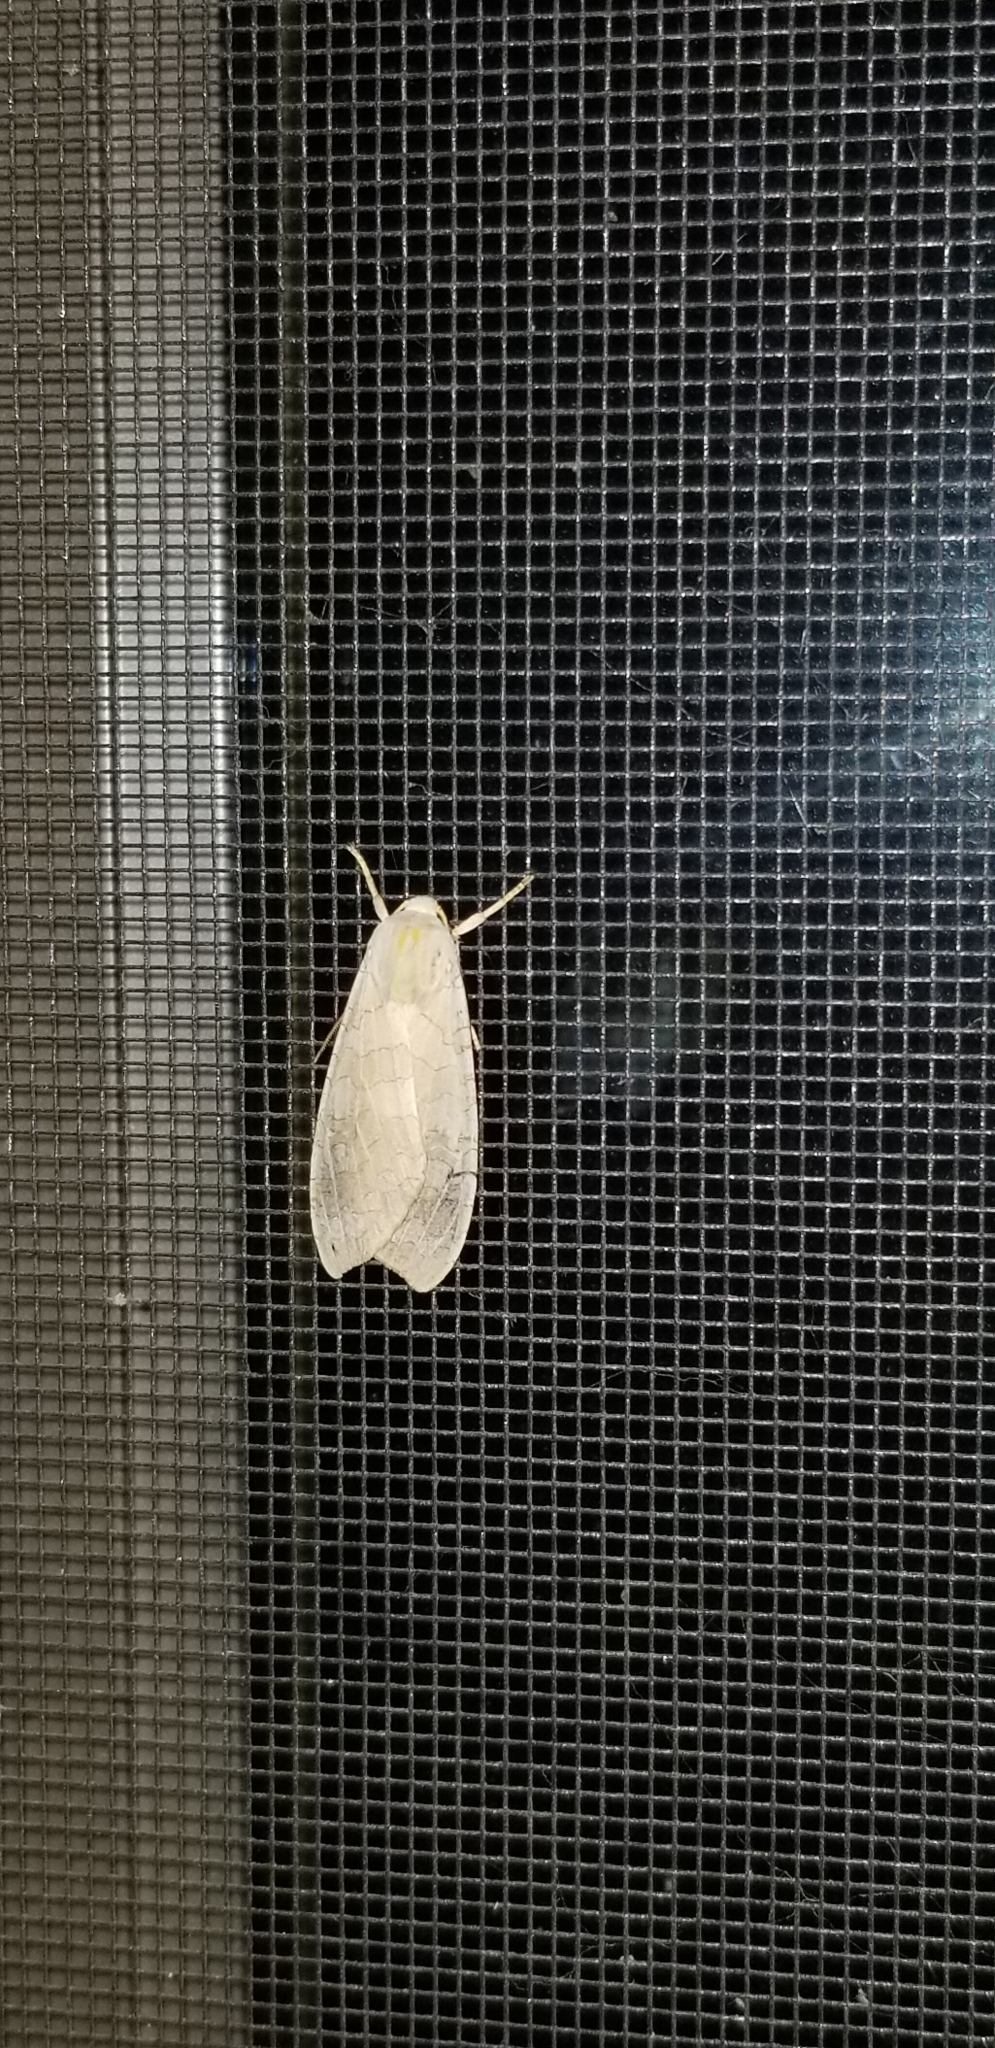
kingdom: Animalia
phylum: Arthropoda
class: Insecta
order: Lepidoptera
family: Erebidae
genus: Halysidota
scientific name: Halysidota
